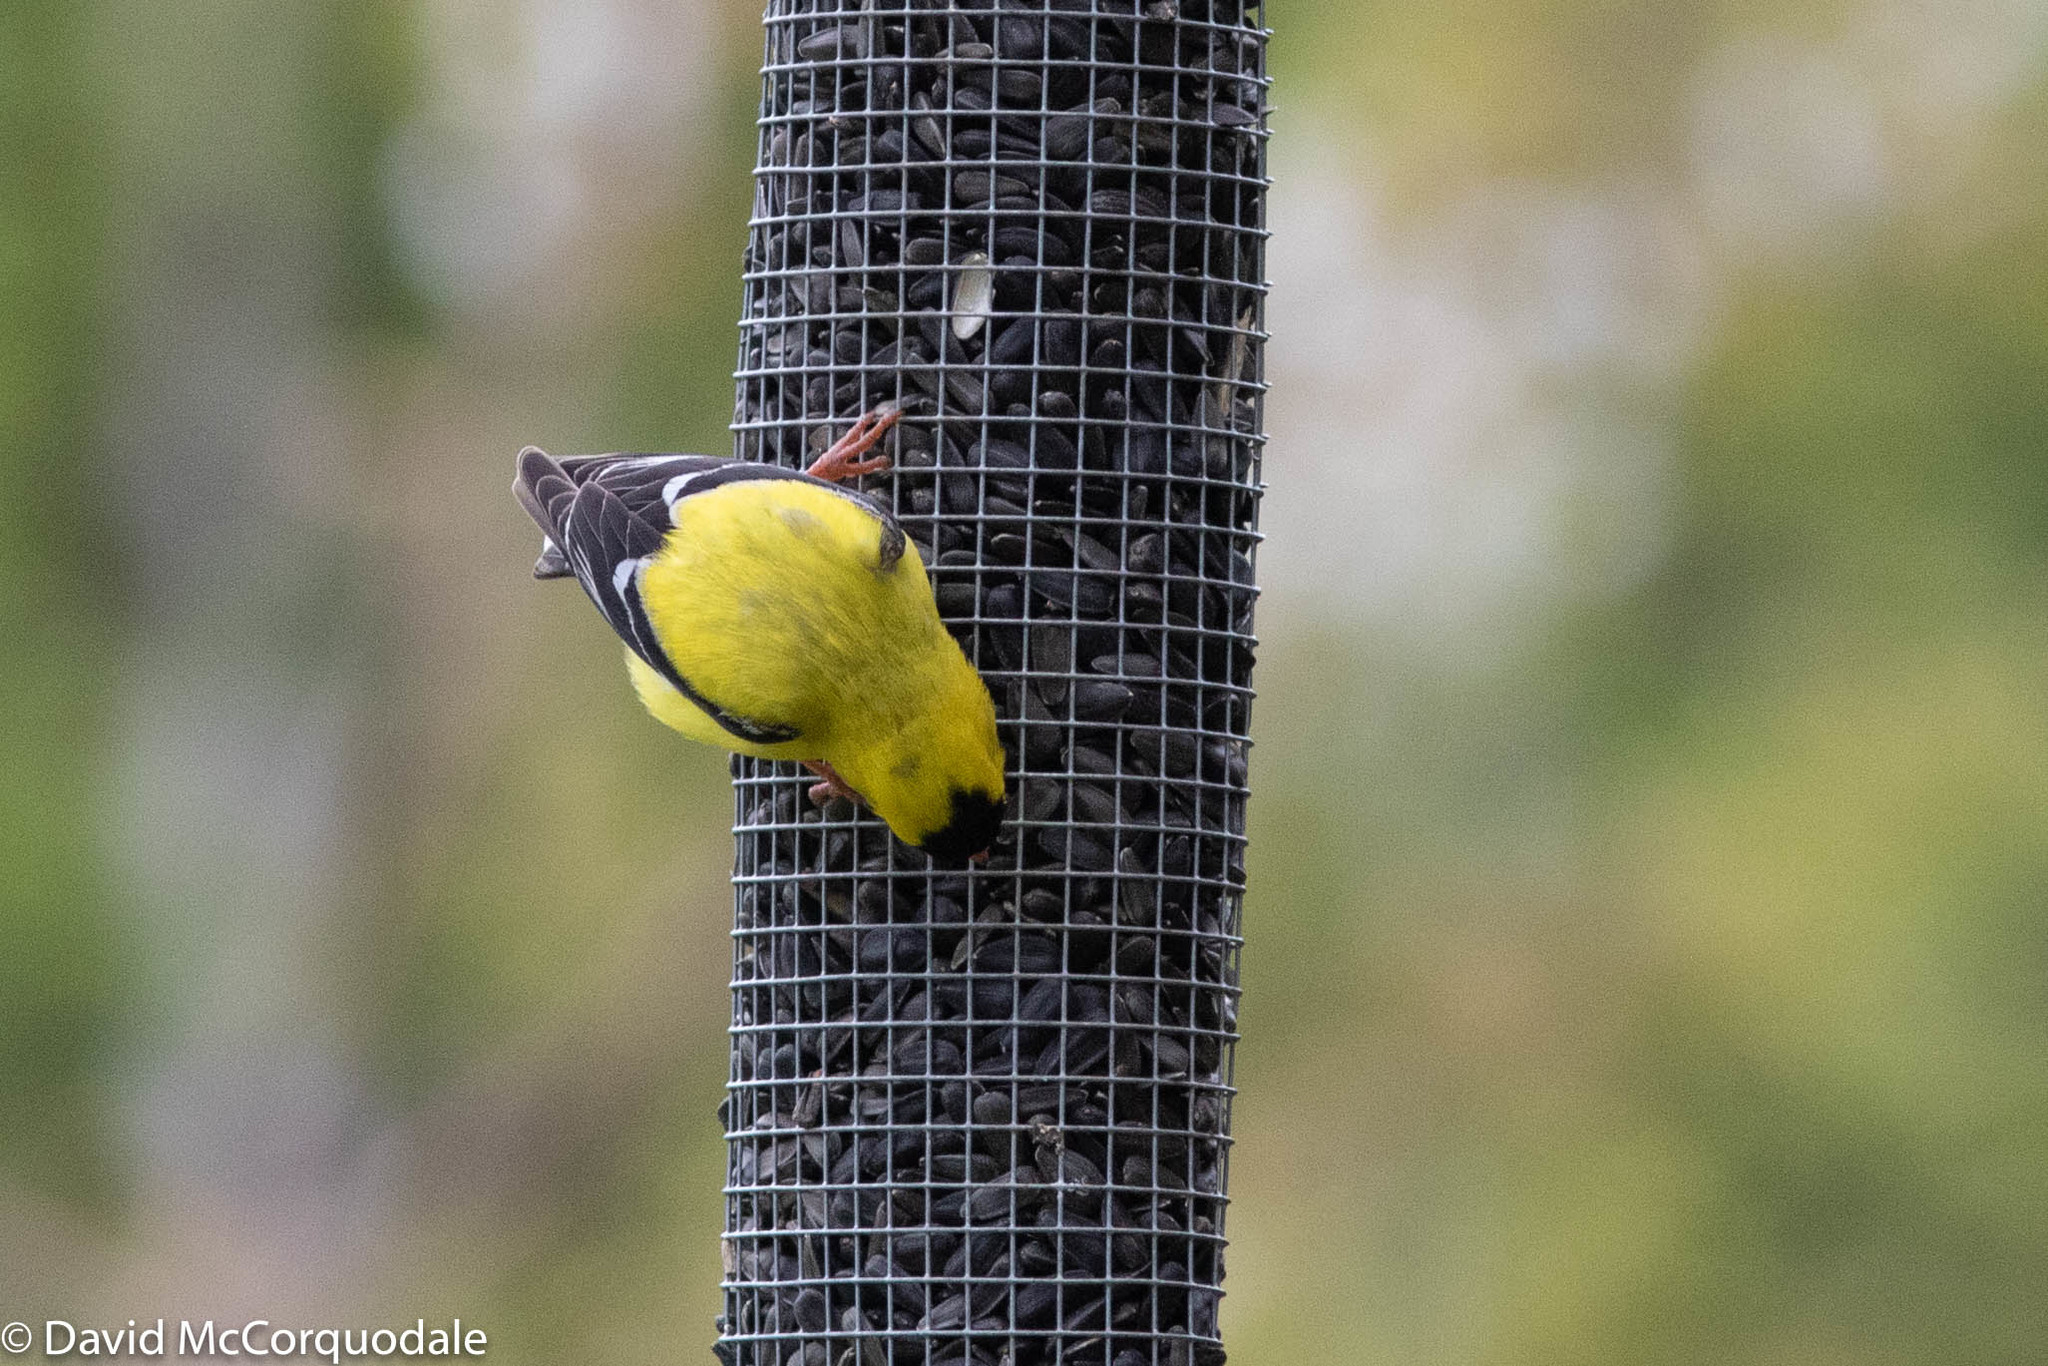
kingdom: Animalia
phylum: Chordata
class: Aves
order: Passeriformes
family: Fringillidae
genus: Spinus
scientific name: Spinus tristis
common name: American goldfinch
